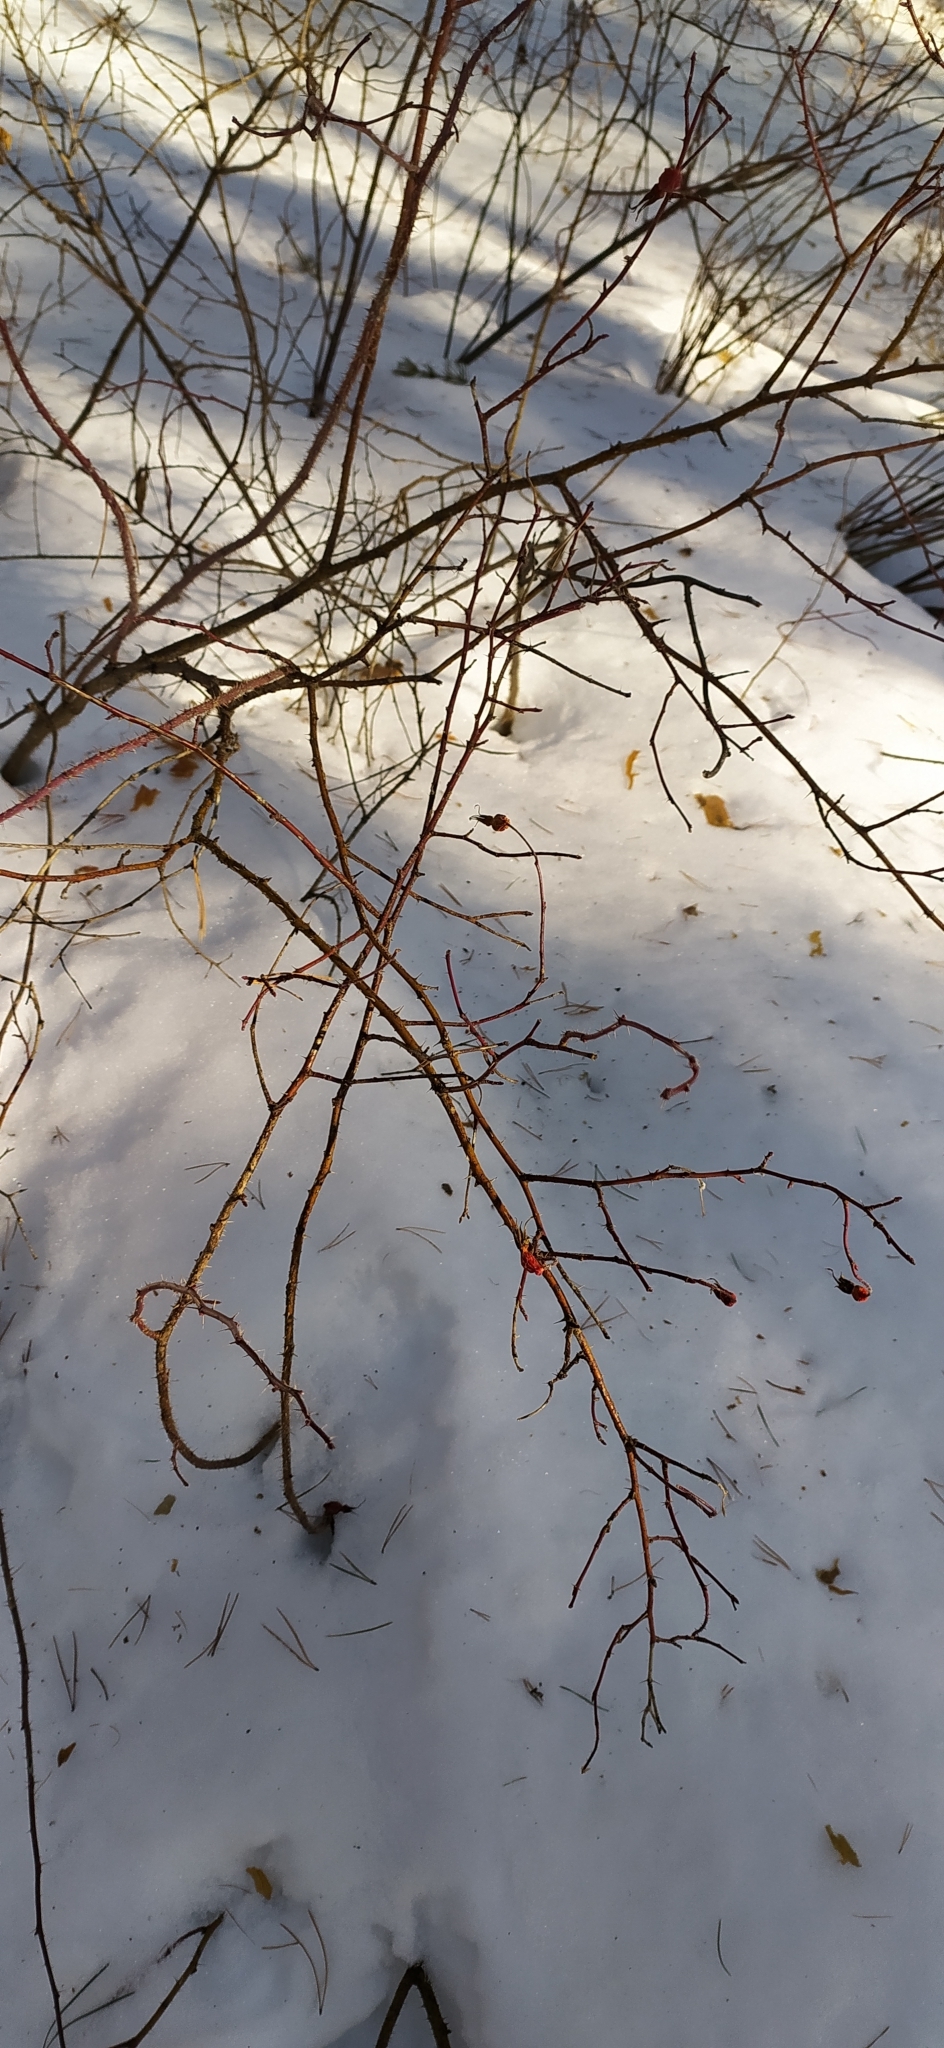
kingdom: Plantae
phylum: Tracheophyta
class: Magnoliopsida
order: Rosales
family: Rosaceae
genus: Rosa
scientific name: Rosa
